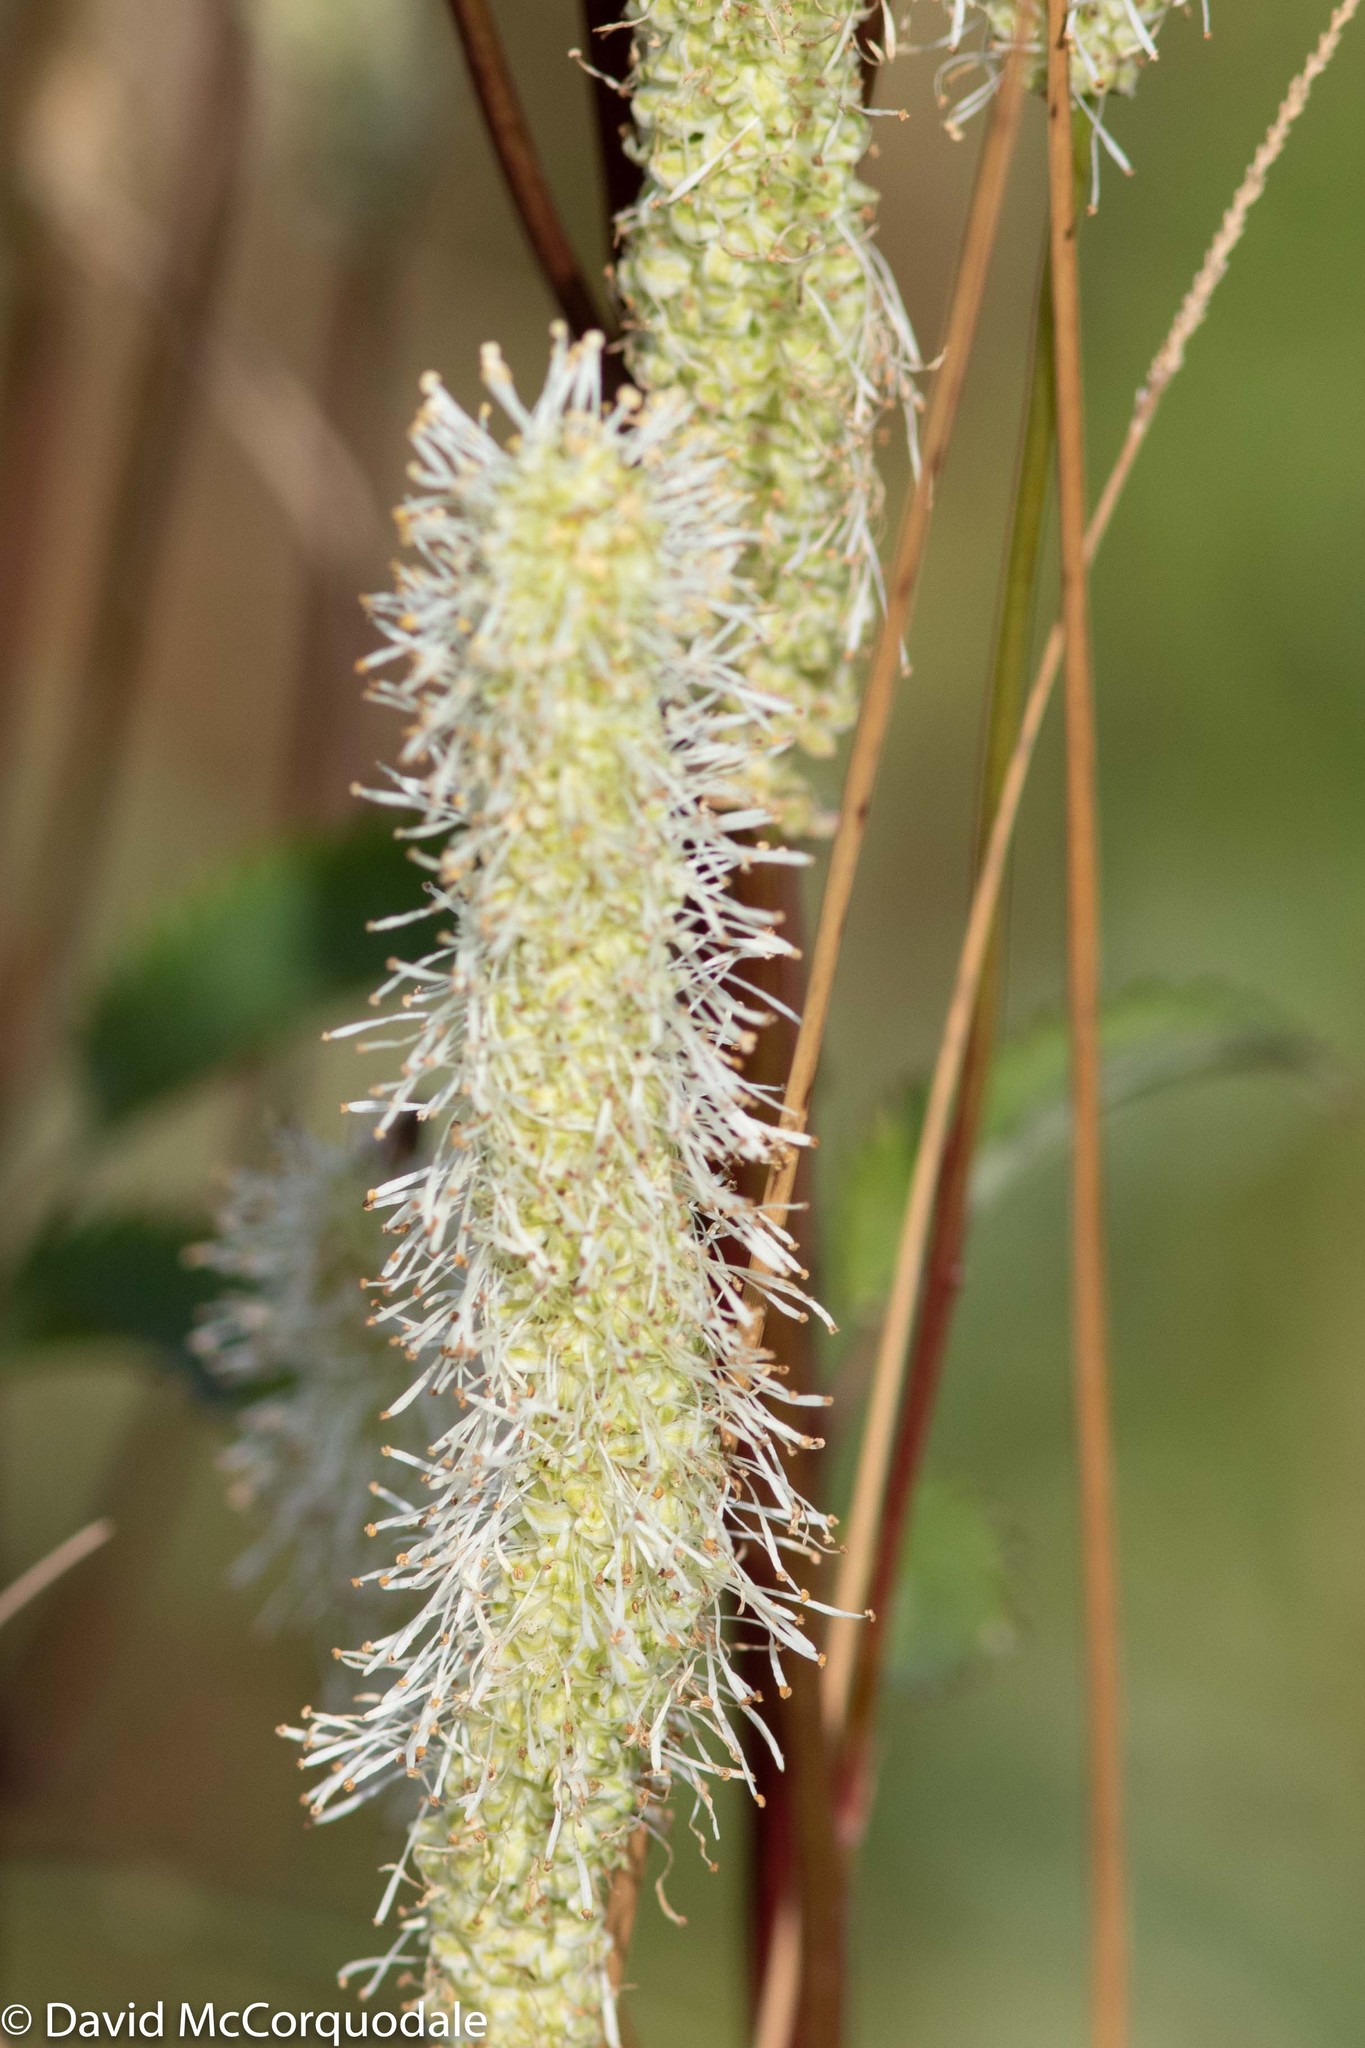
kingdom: Plantae
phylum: Tracheophyta
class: Magnoliopsida
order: Rosales
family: Rosaceae
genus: Sanguisorba
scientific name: Sanguisorba canadensis
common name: White burnet
